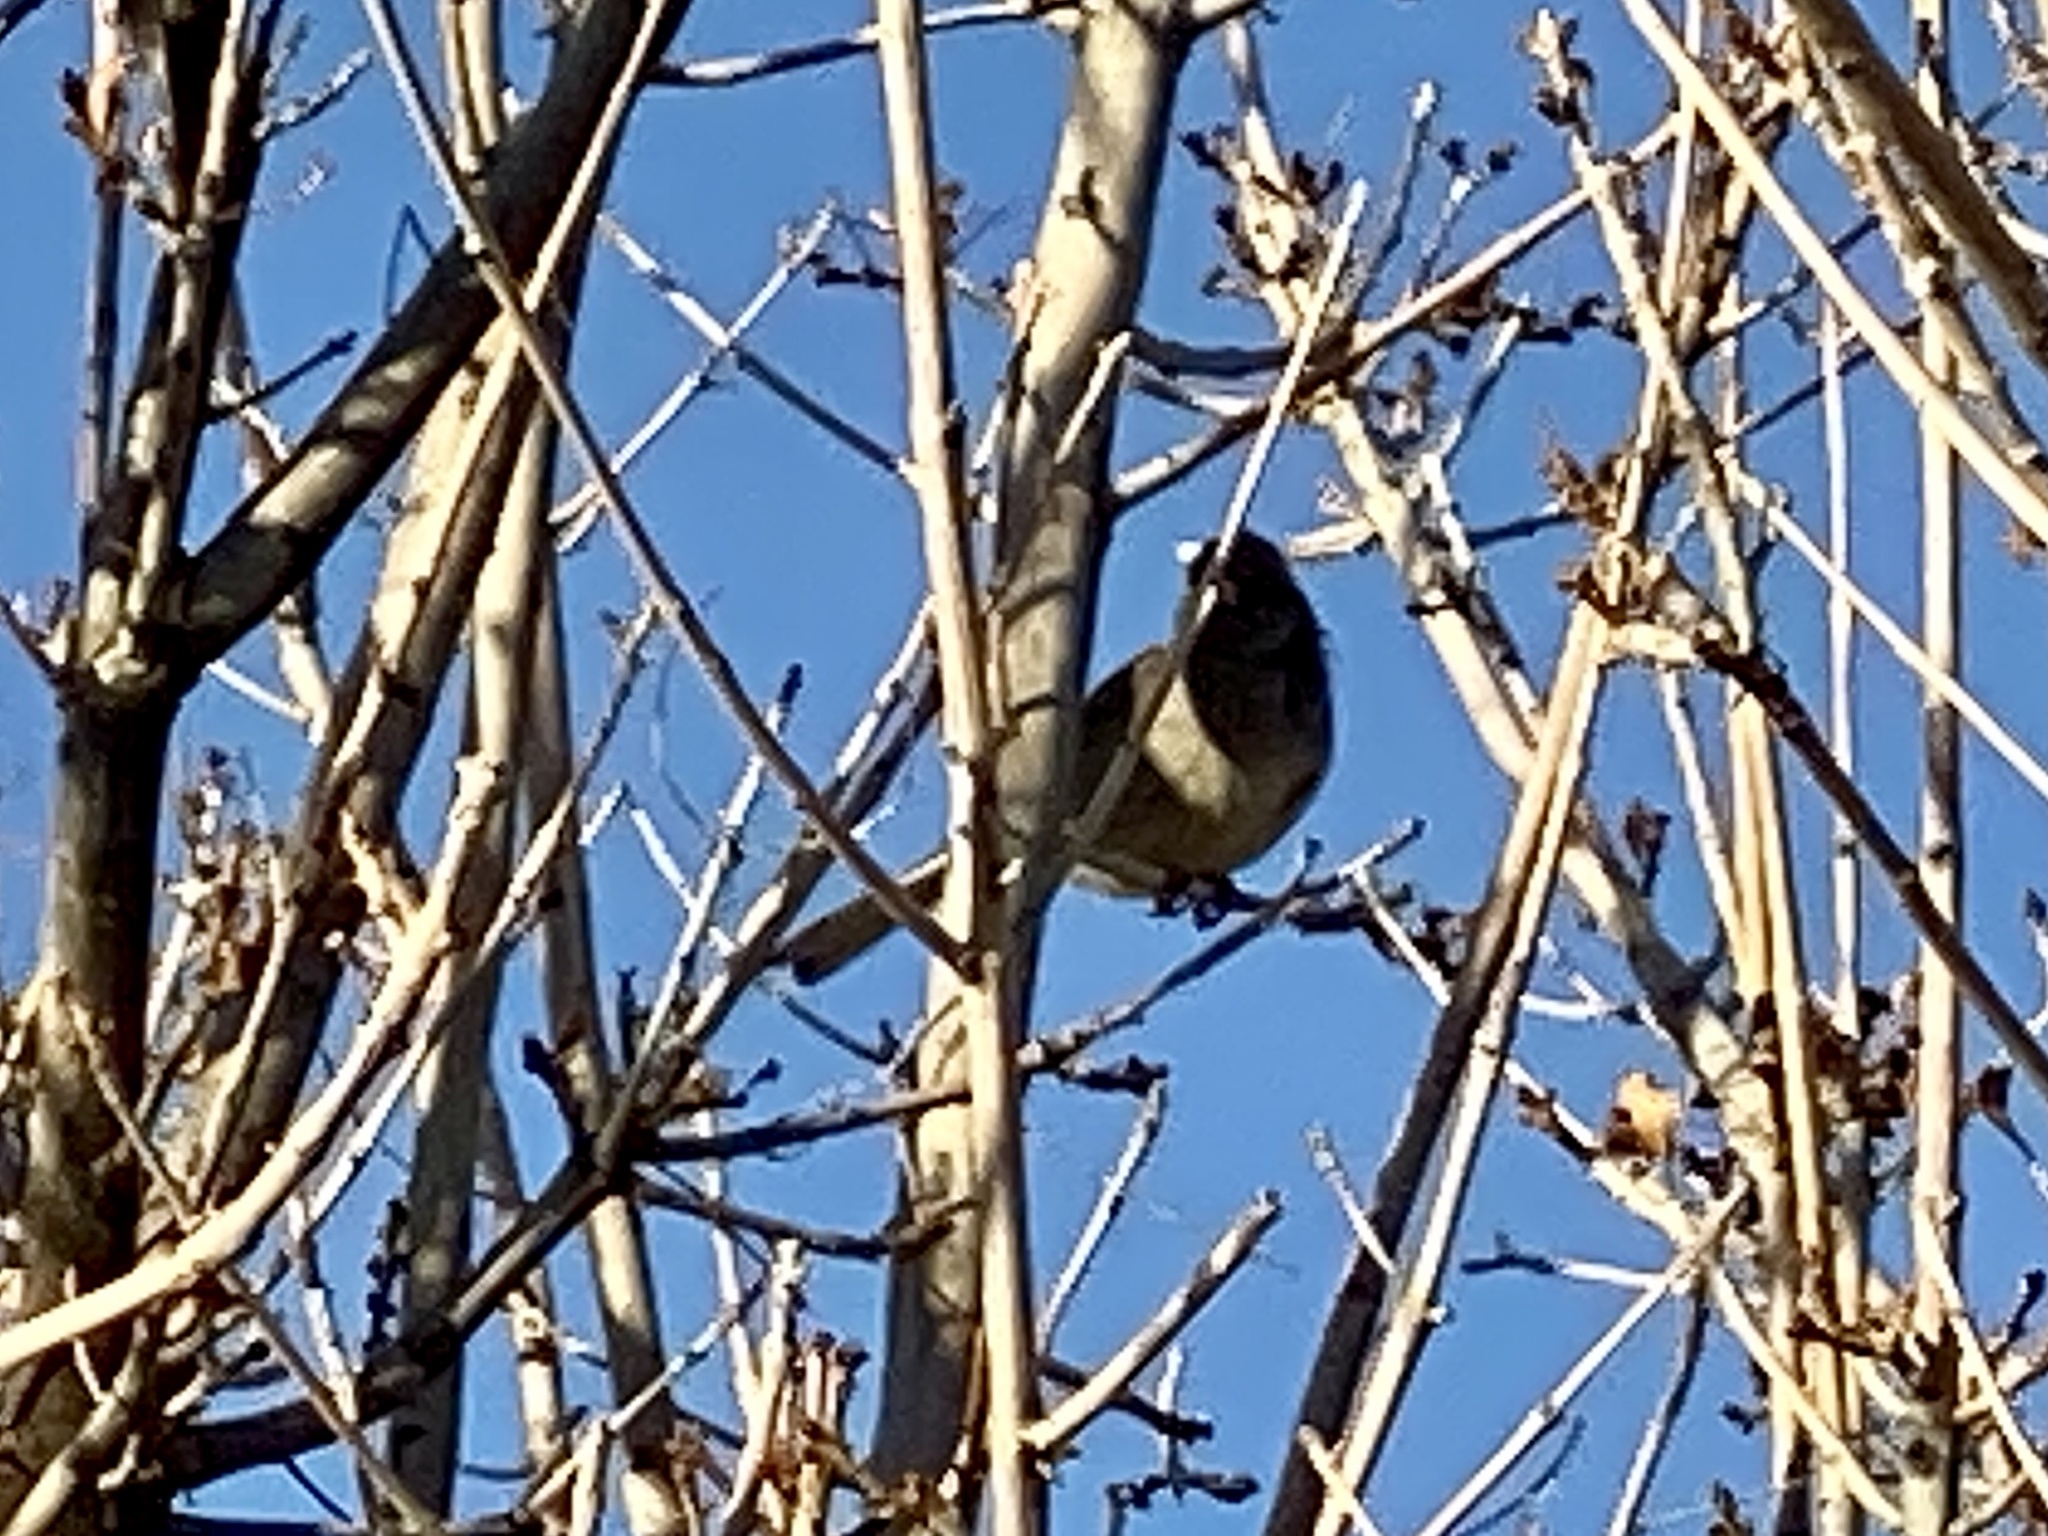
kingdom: Animalia
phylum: Chordata
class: Aves
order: Passeriformes
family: Passerellidae
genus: Junco
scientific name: Junco hyemalis
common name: Dark-eyed junco
